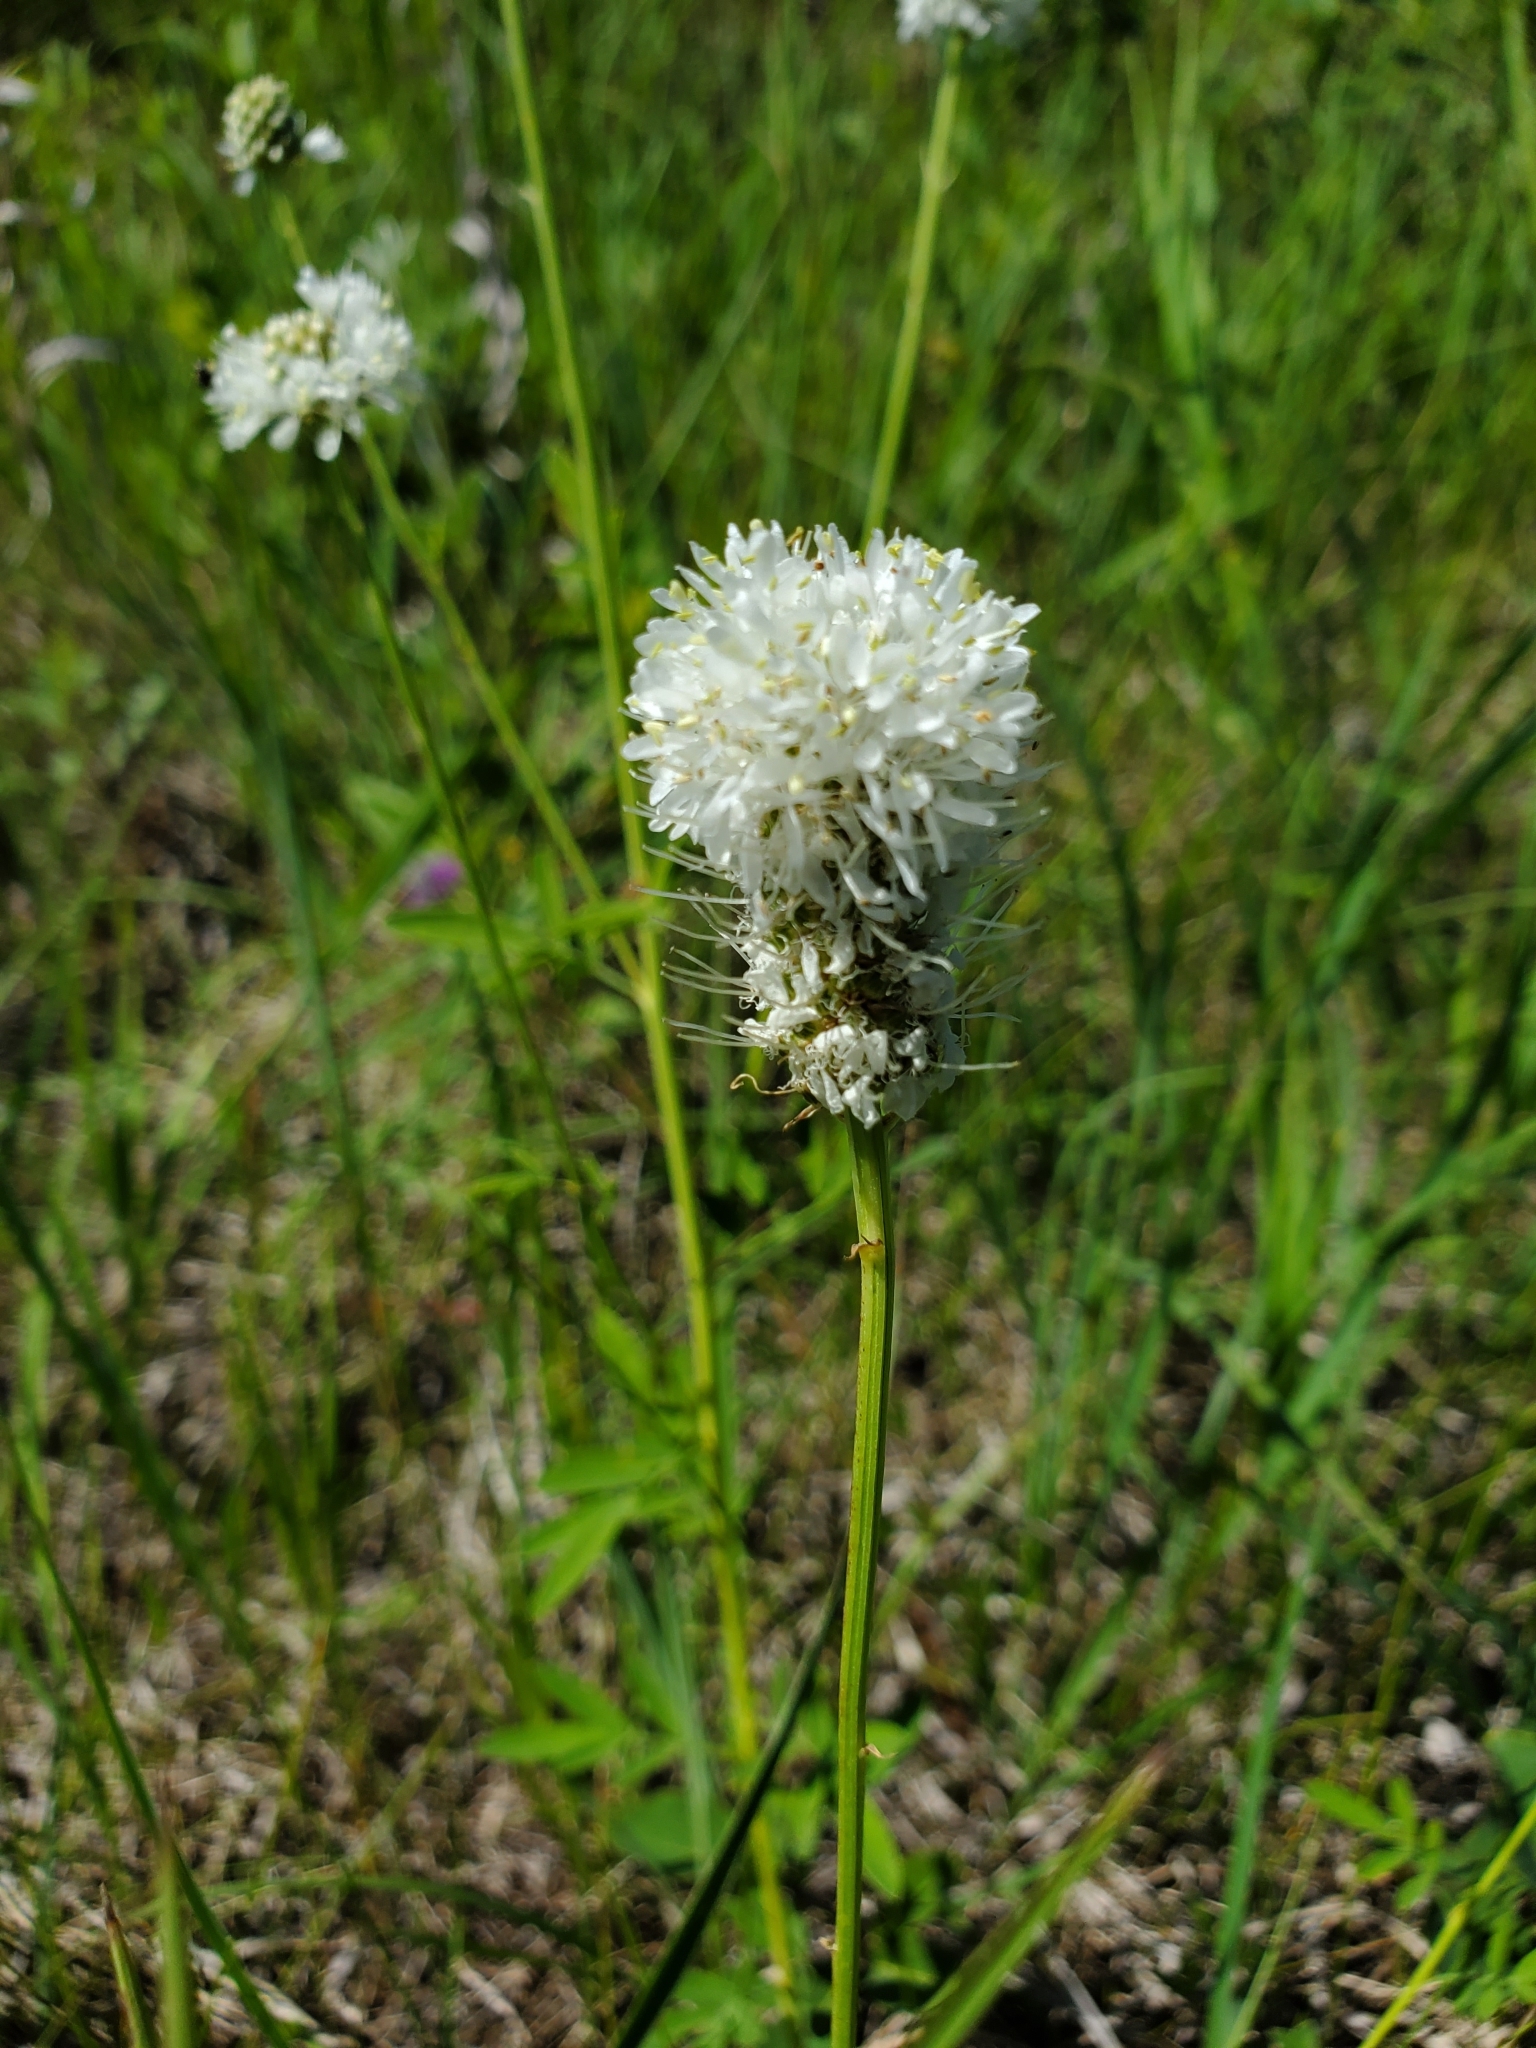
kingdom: Plantae
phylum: Tracheophyta
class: Magnoliopsida
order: Fabales
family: Fabaceae
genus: Dalea
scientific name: Dalea candida
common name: White prairie-clover
